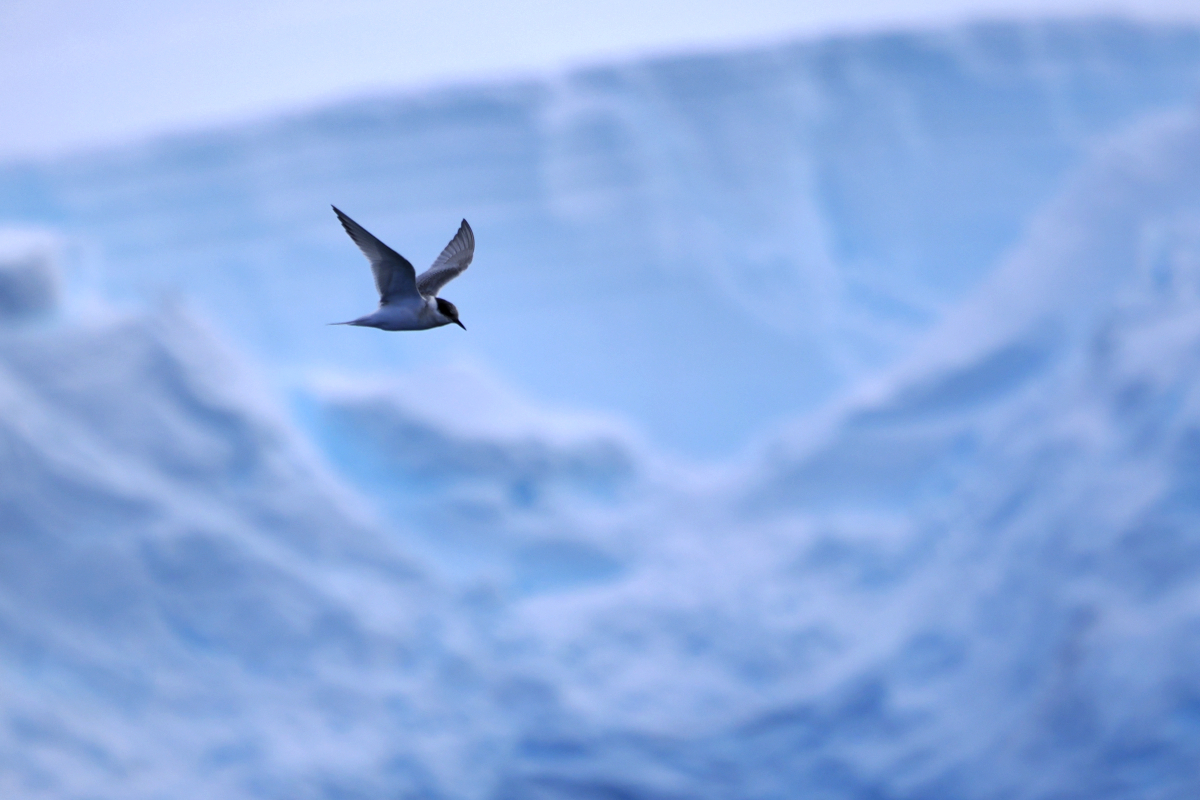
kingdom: Animalia
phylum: Chordata
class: Aves
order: Charadriiformes
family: Laridae
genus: Sterna
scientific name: Sterna vittata
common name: Antarctic tern
